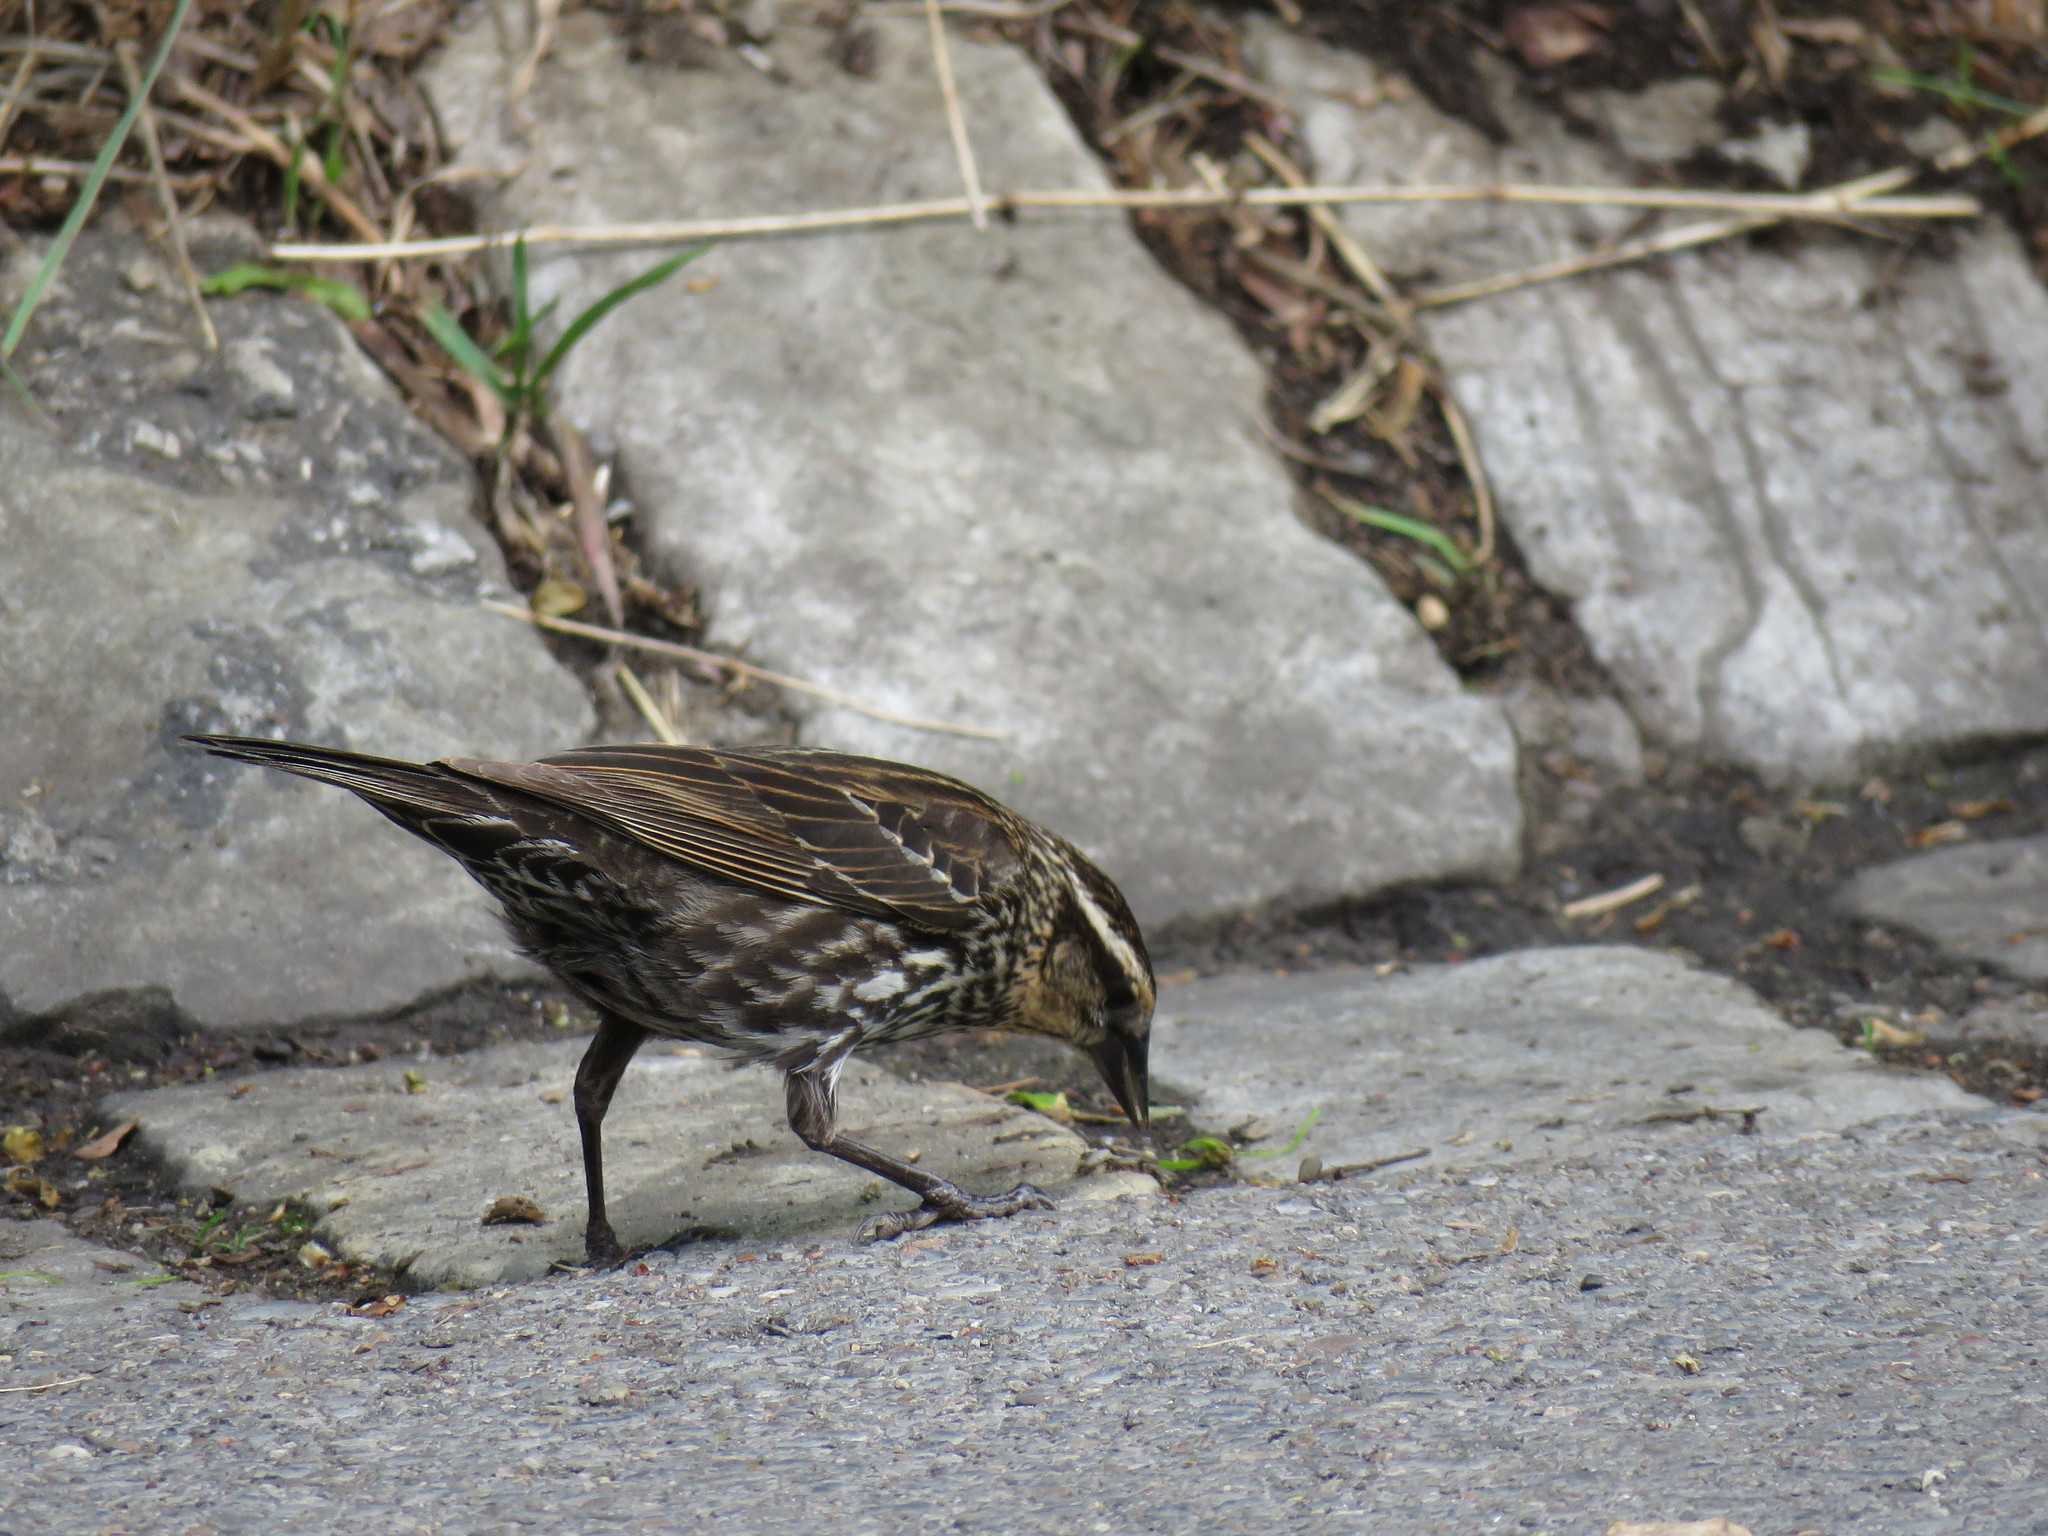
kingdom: Animalia
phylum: Chordata
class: Aves
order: Passeriformes
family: Icteridae
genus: Agelaius
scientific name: Agelaius phoeniceus
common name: Red-winged blackbird
